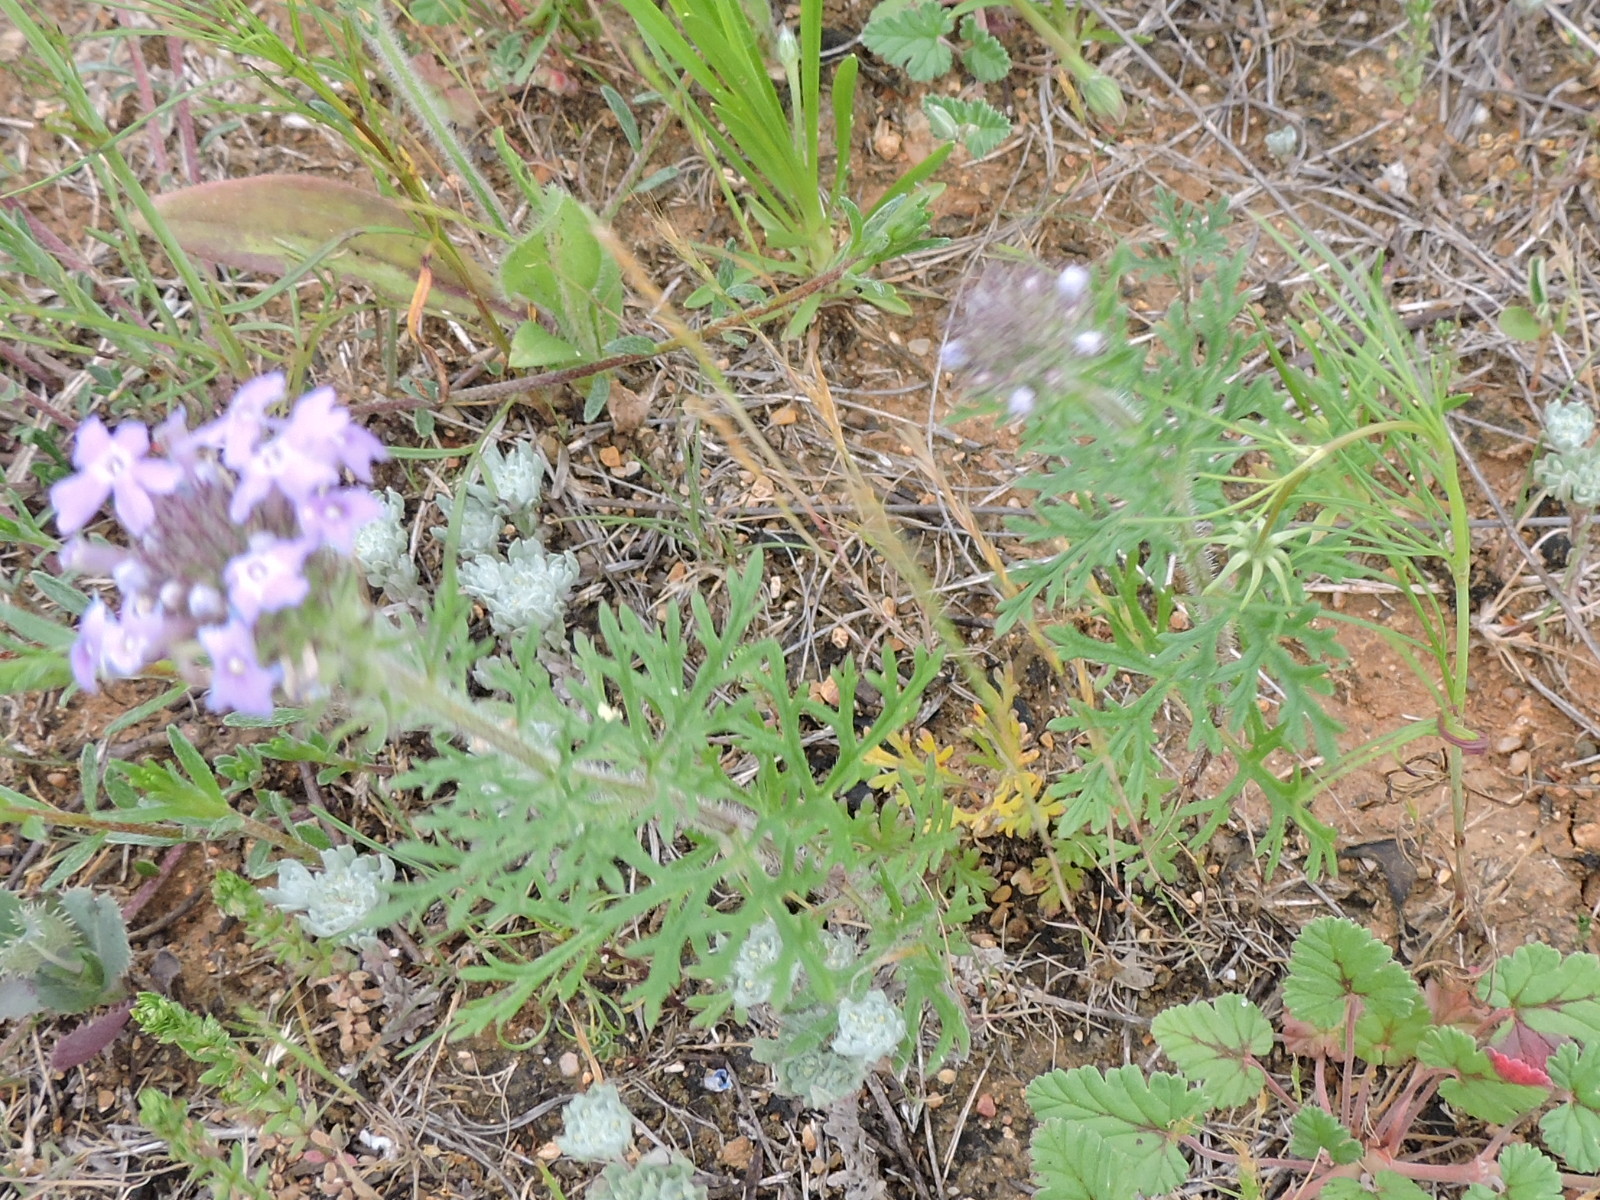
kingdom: Plantae
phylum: Tracheophyta
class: Magnoliopsida
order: Lamiales
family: Verbenaceae
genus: Verbena
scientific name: Verbena bipinnatifida
